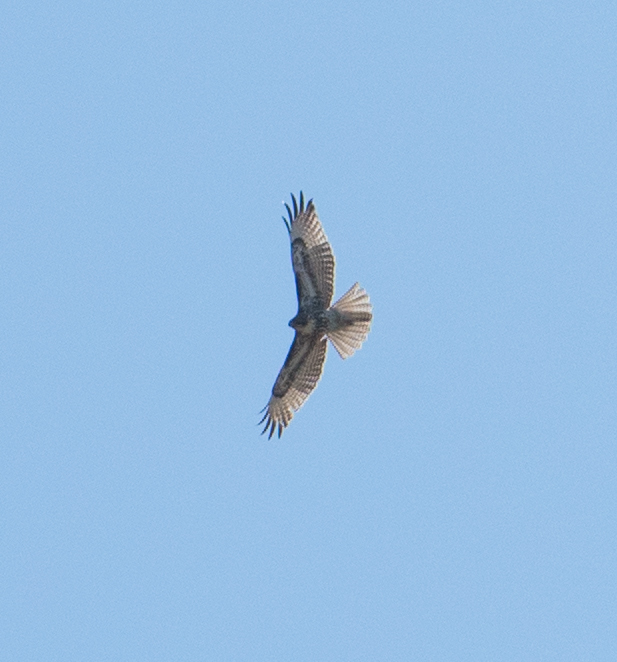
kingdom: Animalia
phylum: Chordata
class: Aves
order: Accipitriformes
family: Accipitridae
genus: Buteo
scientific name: Buteo jamaicensis
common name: Red-tailed hawk
